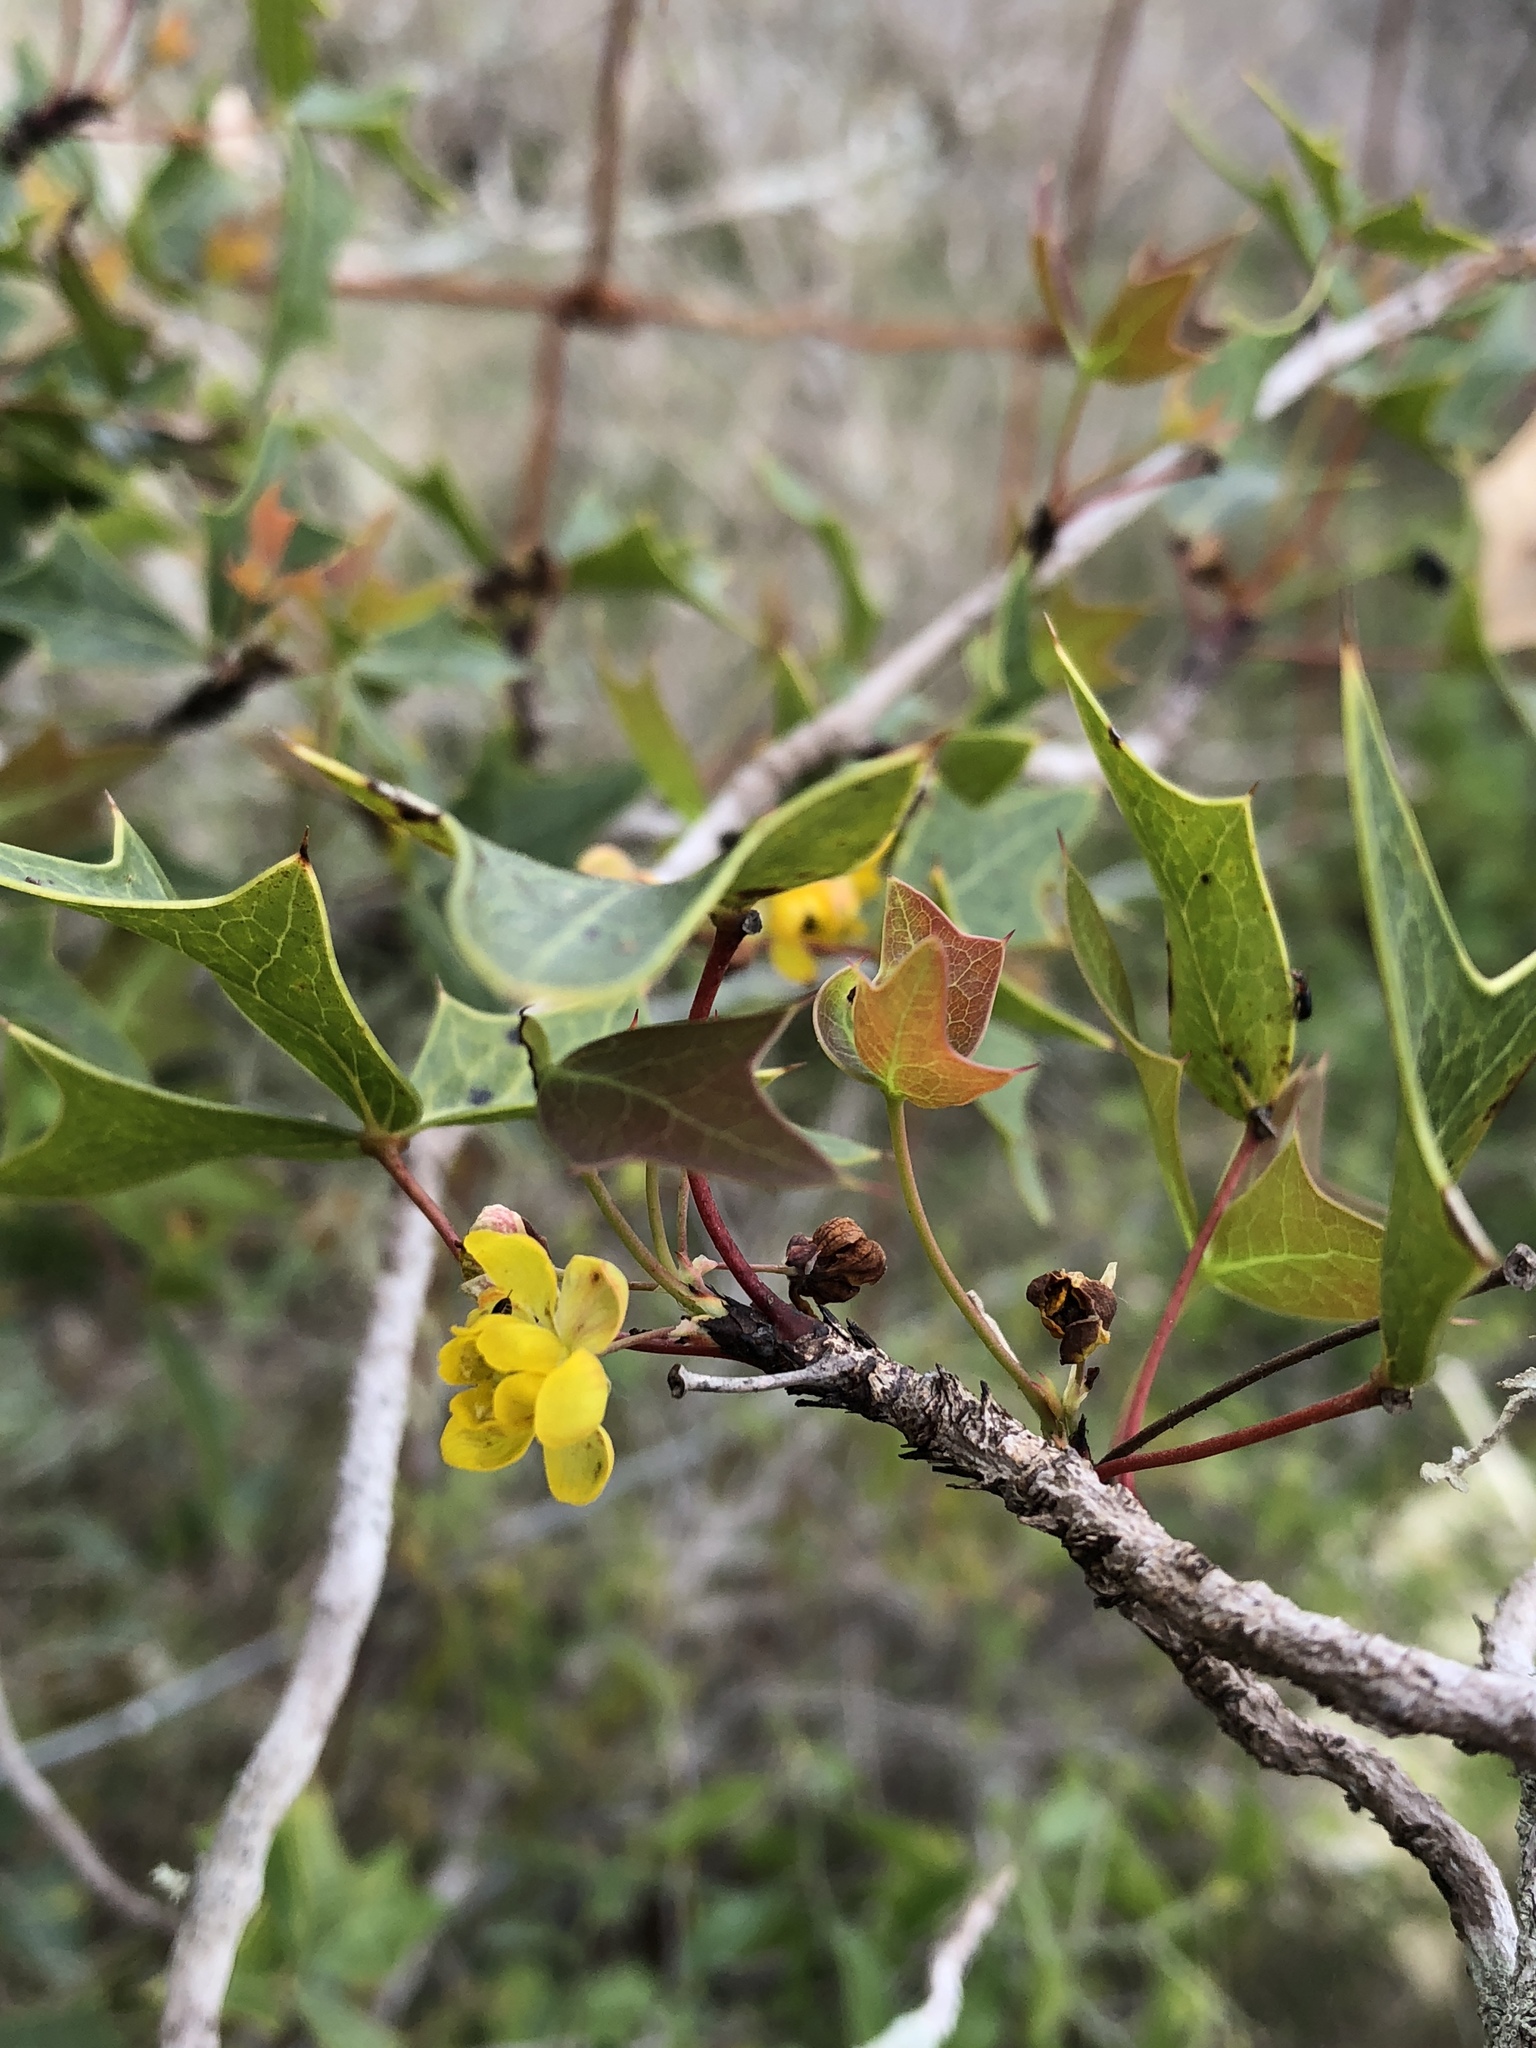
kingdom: Plantae
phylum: Tracheophyta
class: Magnoliopsida
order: Ranunculales
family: Berberidaceae
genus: Alloberberis
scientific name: Alloberberis trifoliolata
